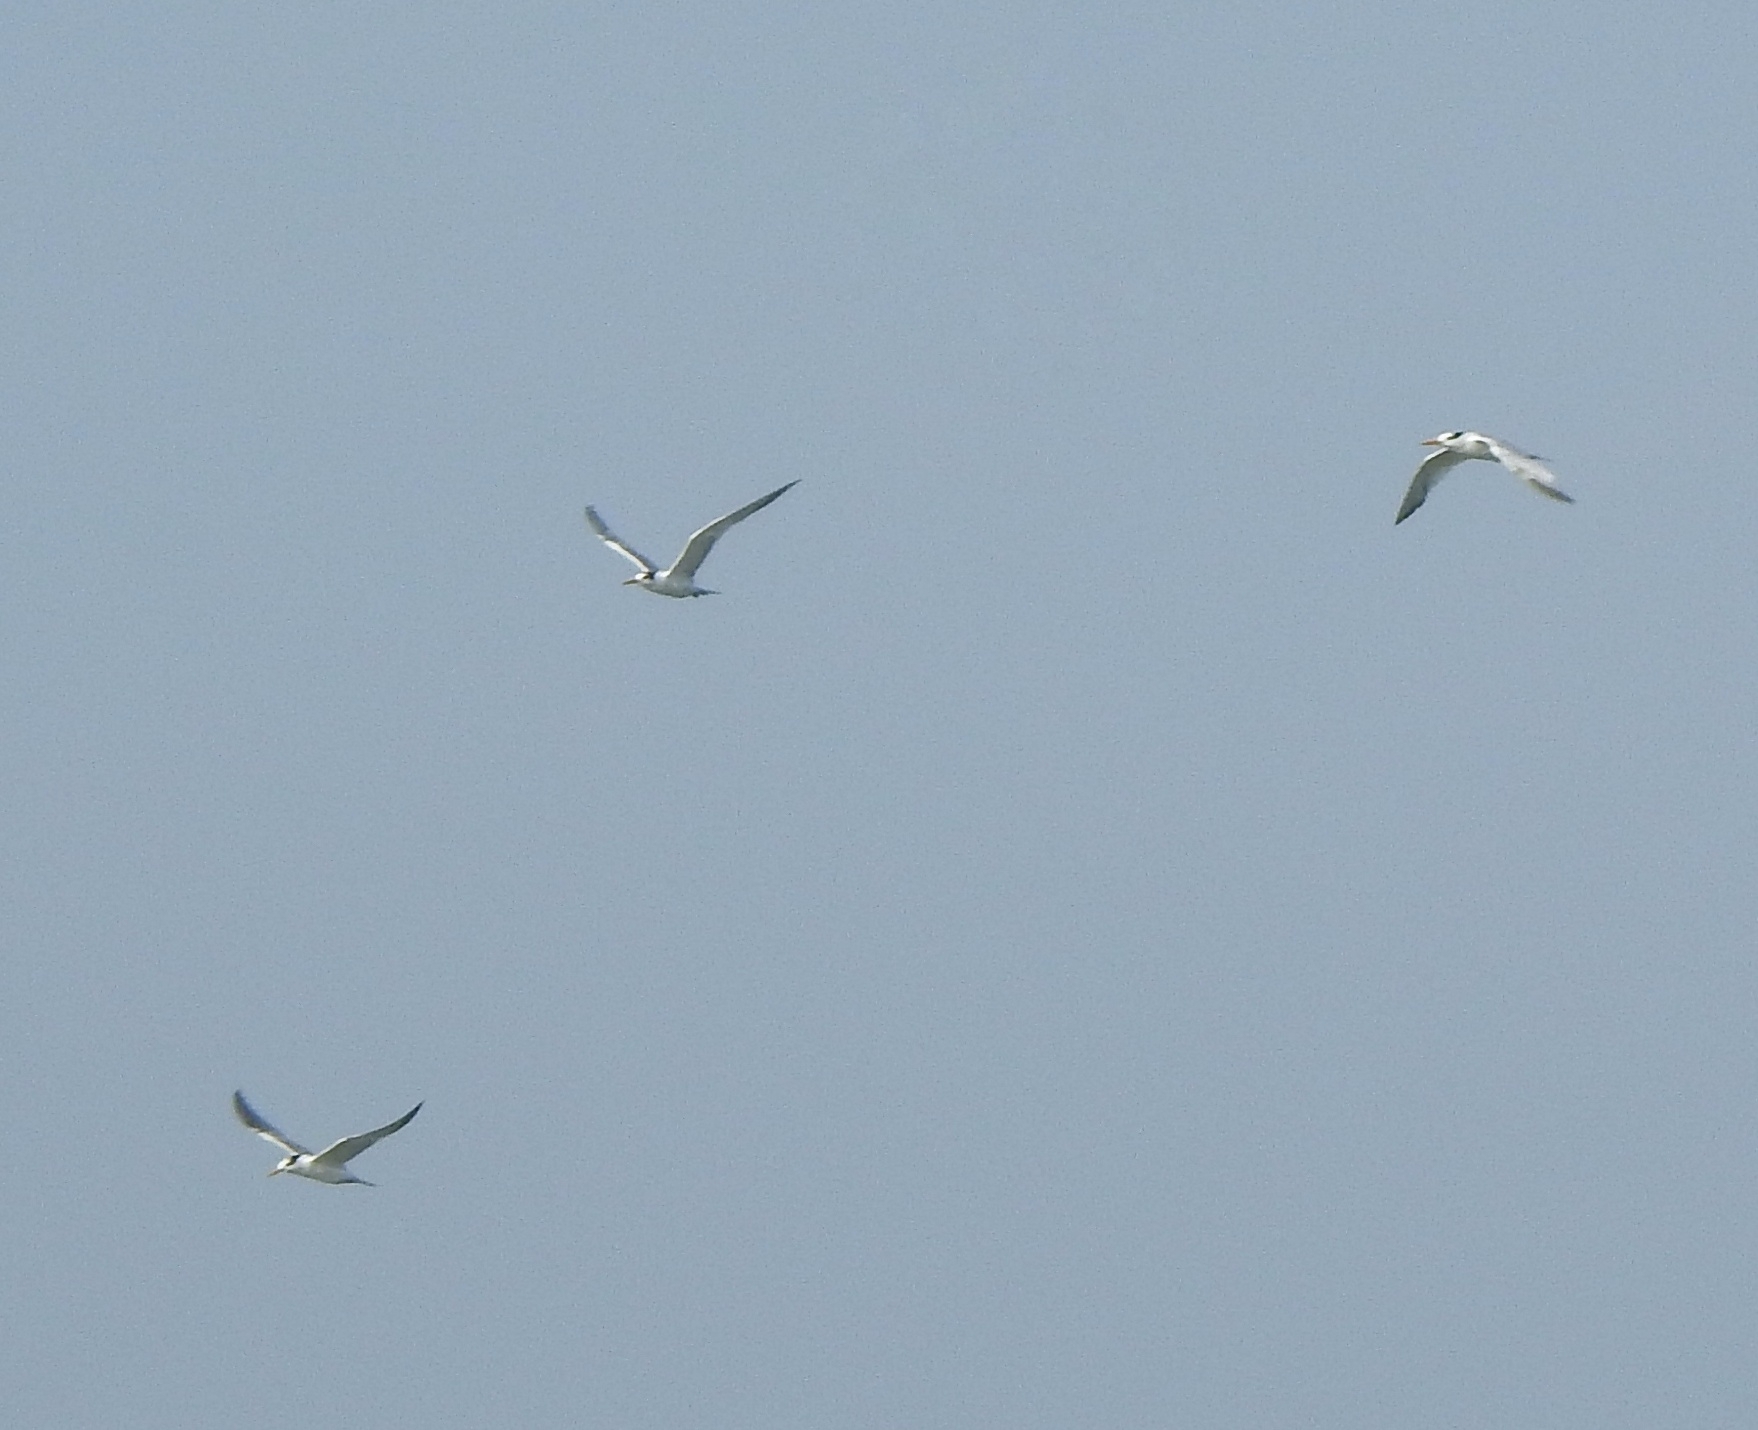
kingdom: Animalia
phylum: Chordata
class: Aves
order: Charadriiformes
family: Laridae
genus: Thalasseus
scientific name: Thalasseus bengalensis
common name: Lesser crested tern
